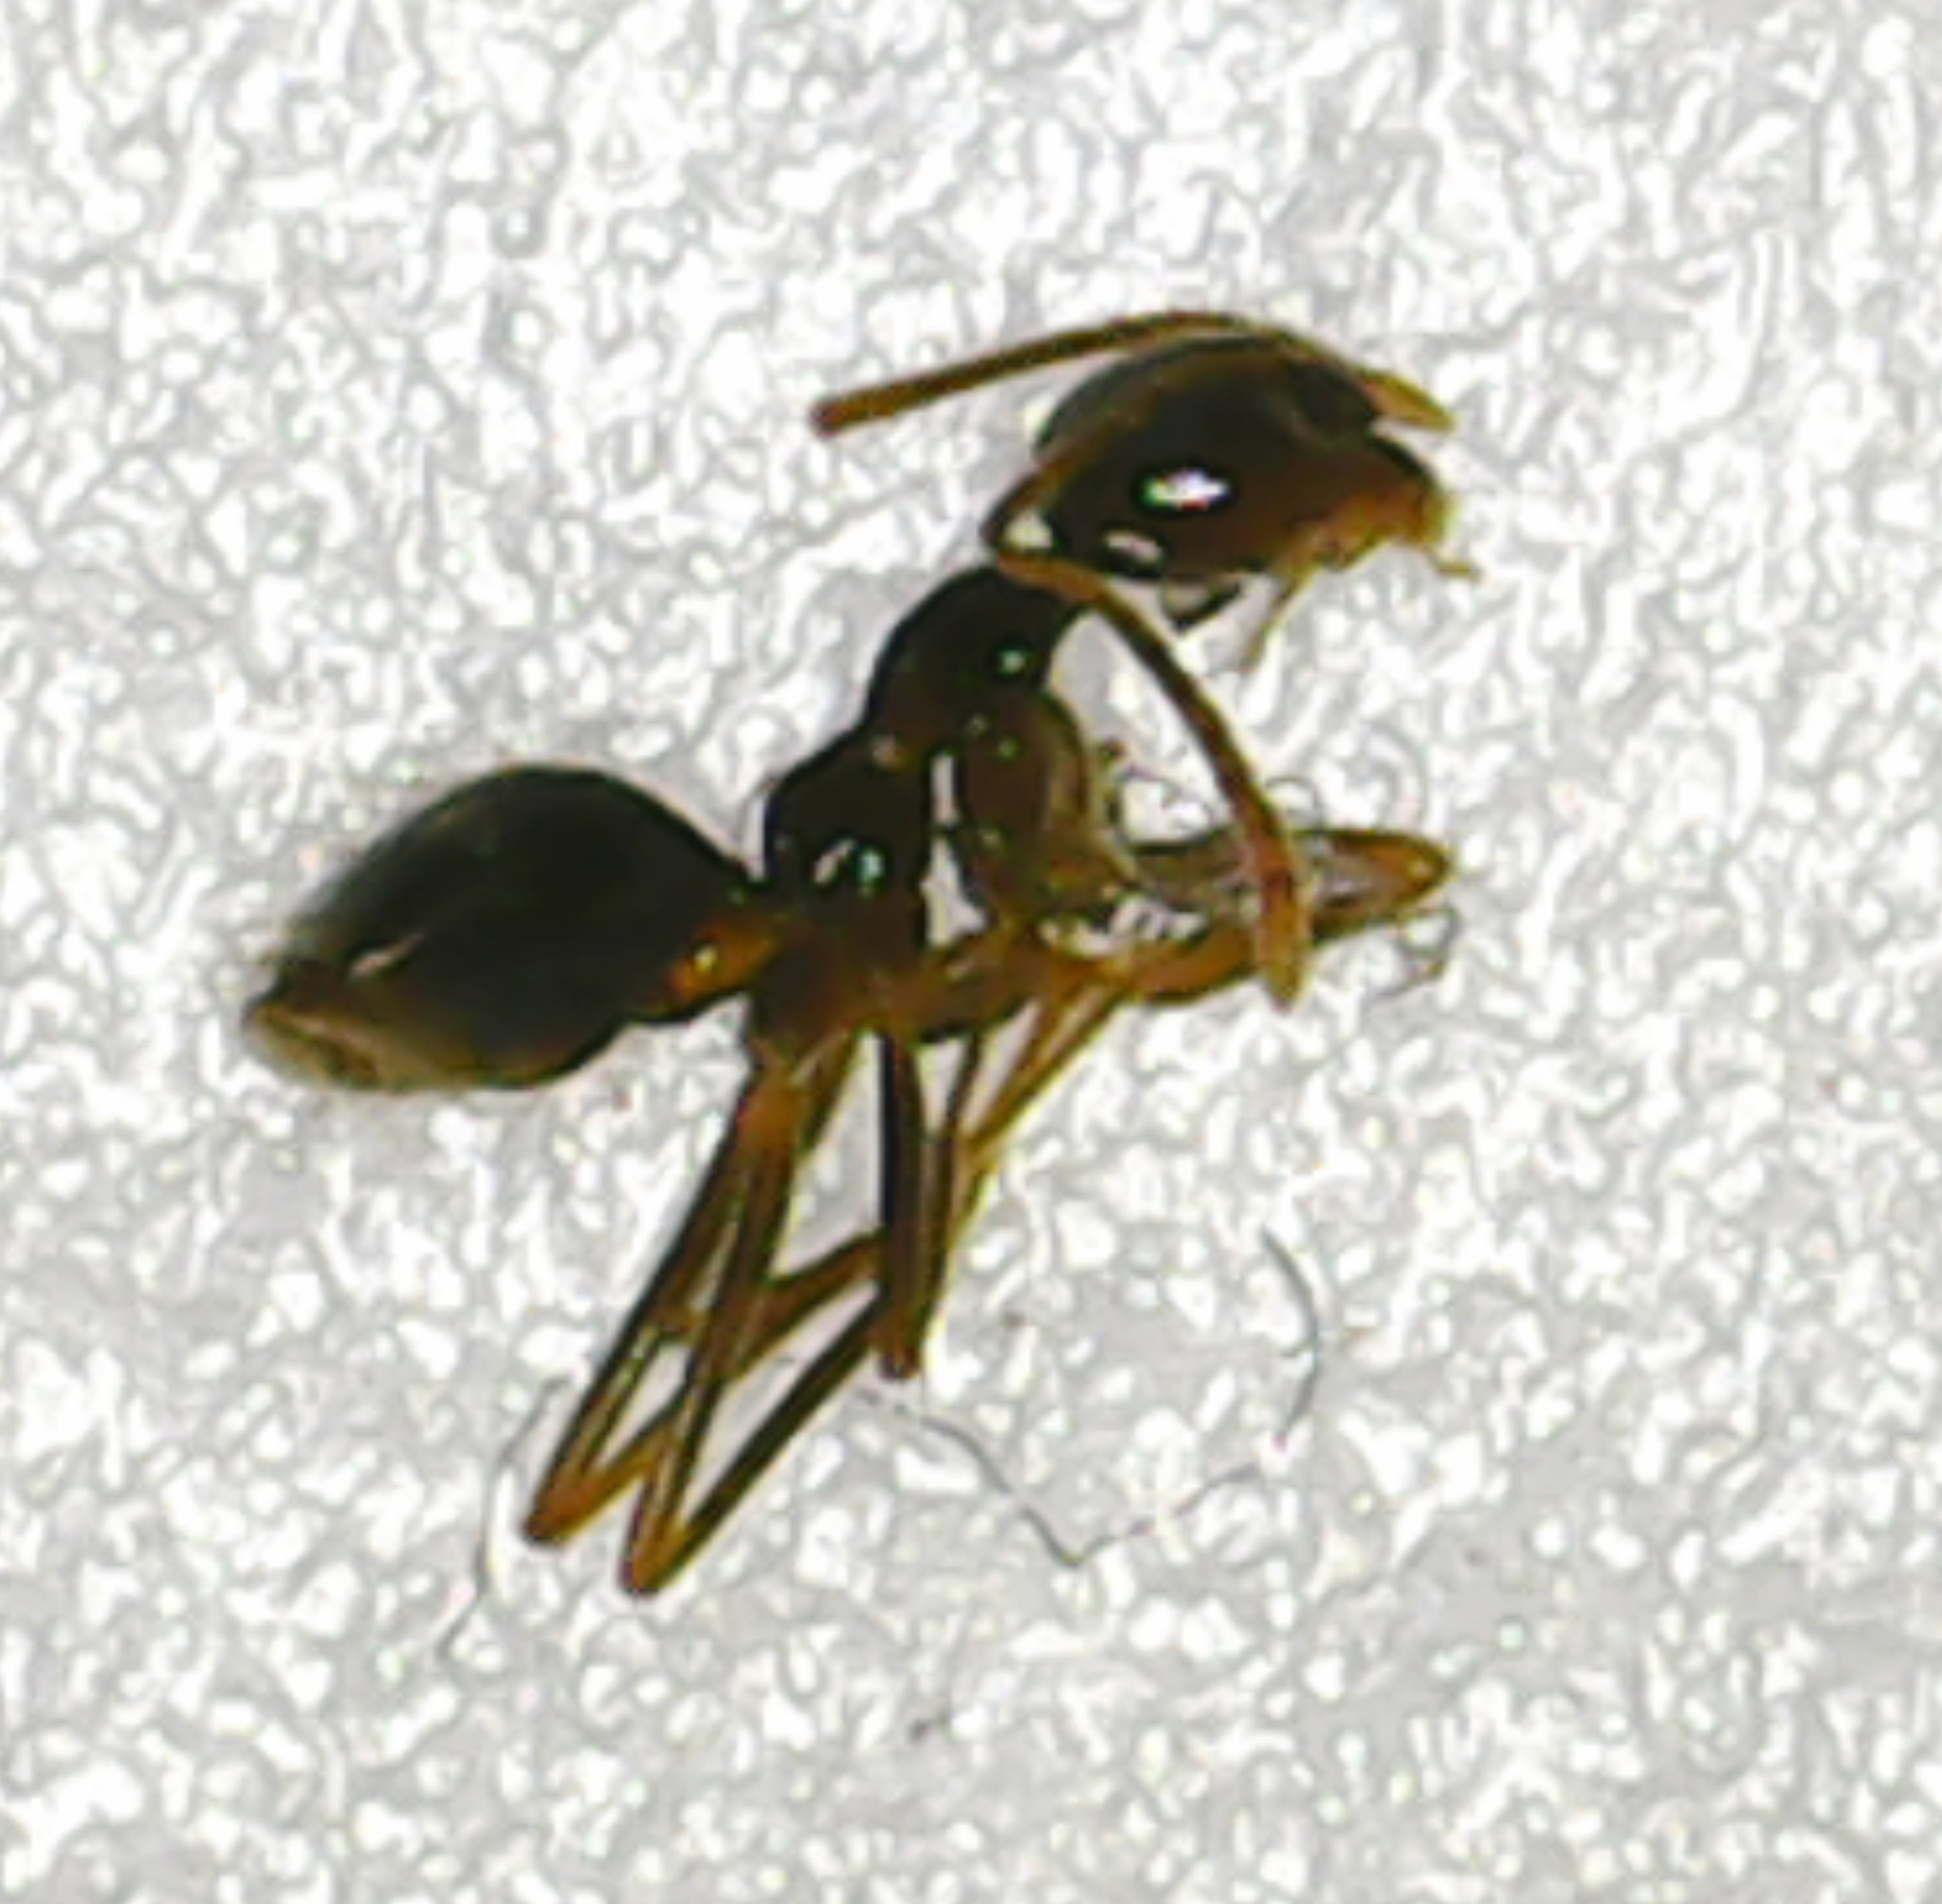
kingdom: Animalia
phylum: Arthropoda
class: Insecta
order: Hymenoptera
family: Formicidae
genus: Prenolepis
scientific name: Prenolepis imparis
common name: Small honey ant
